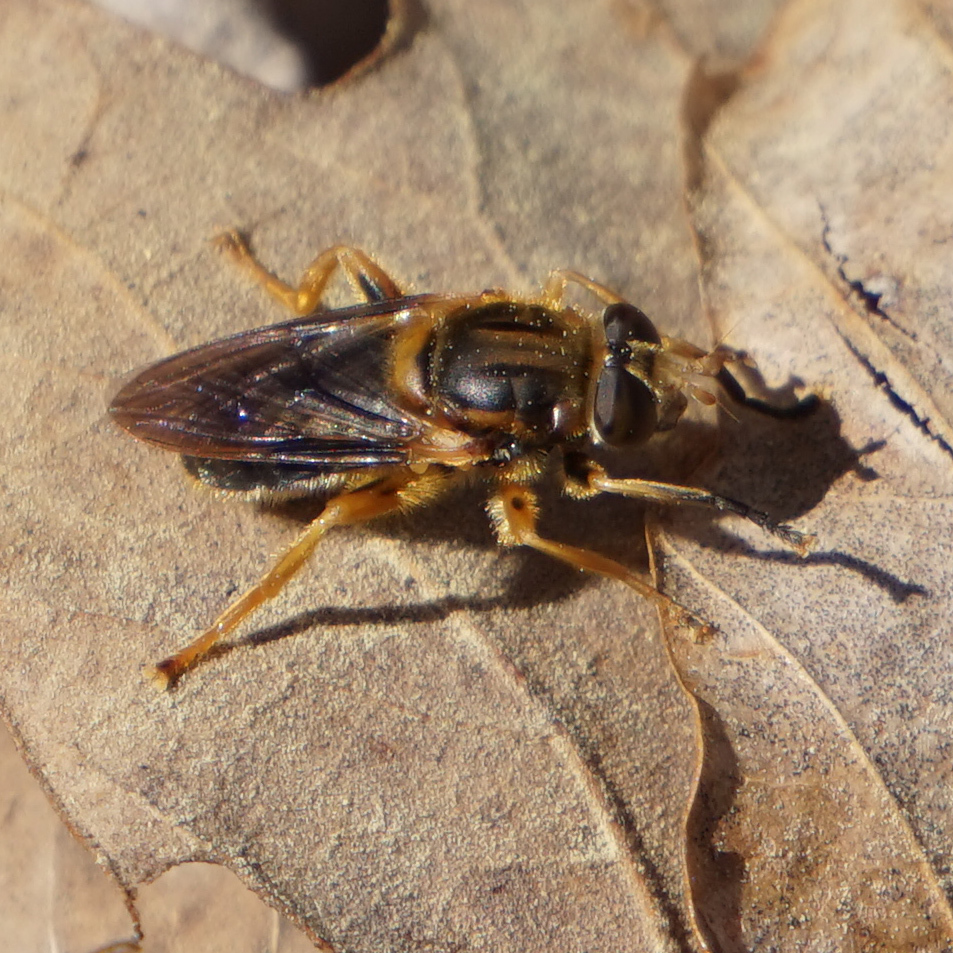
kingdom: Animalia
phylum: Arthropoda
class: Insecta
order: Diptera
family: Syrphidae
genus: Teuchocnemis
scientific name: Teuchocnemis lituratus
